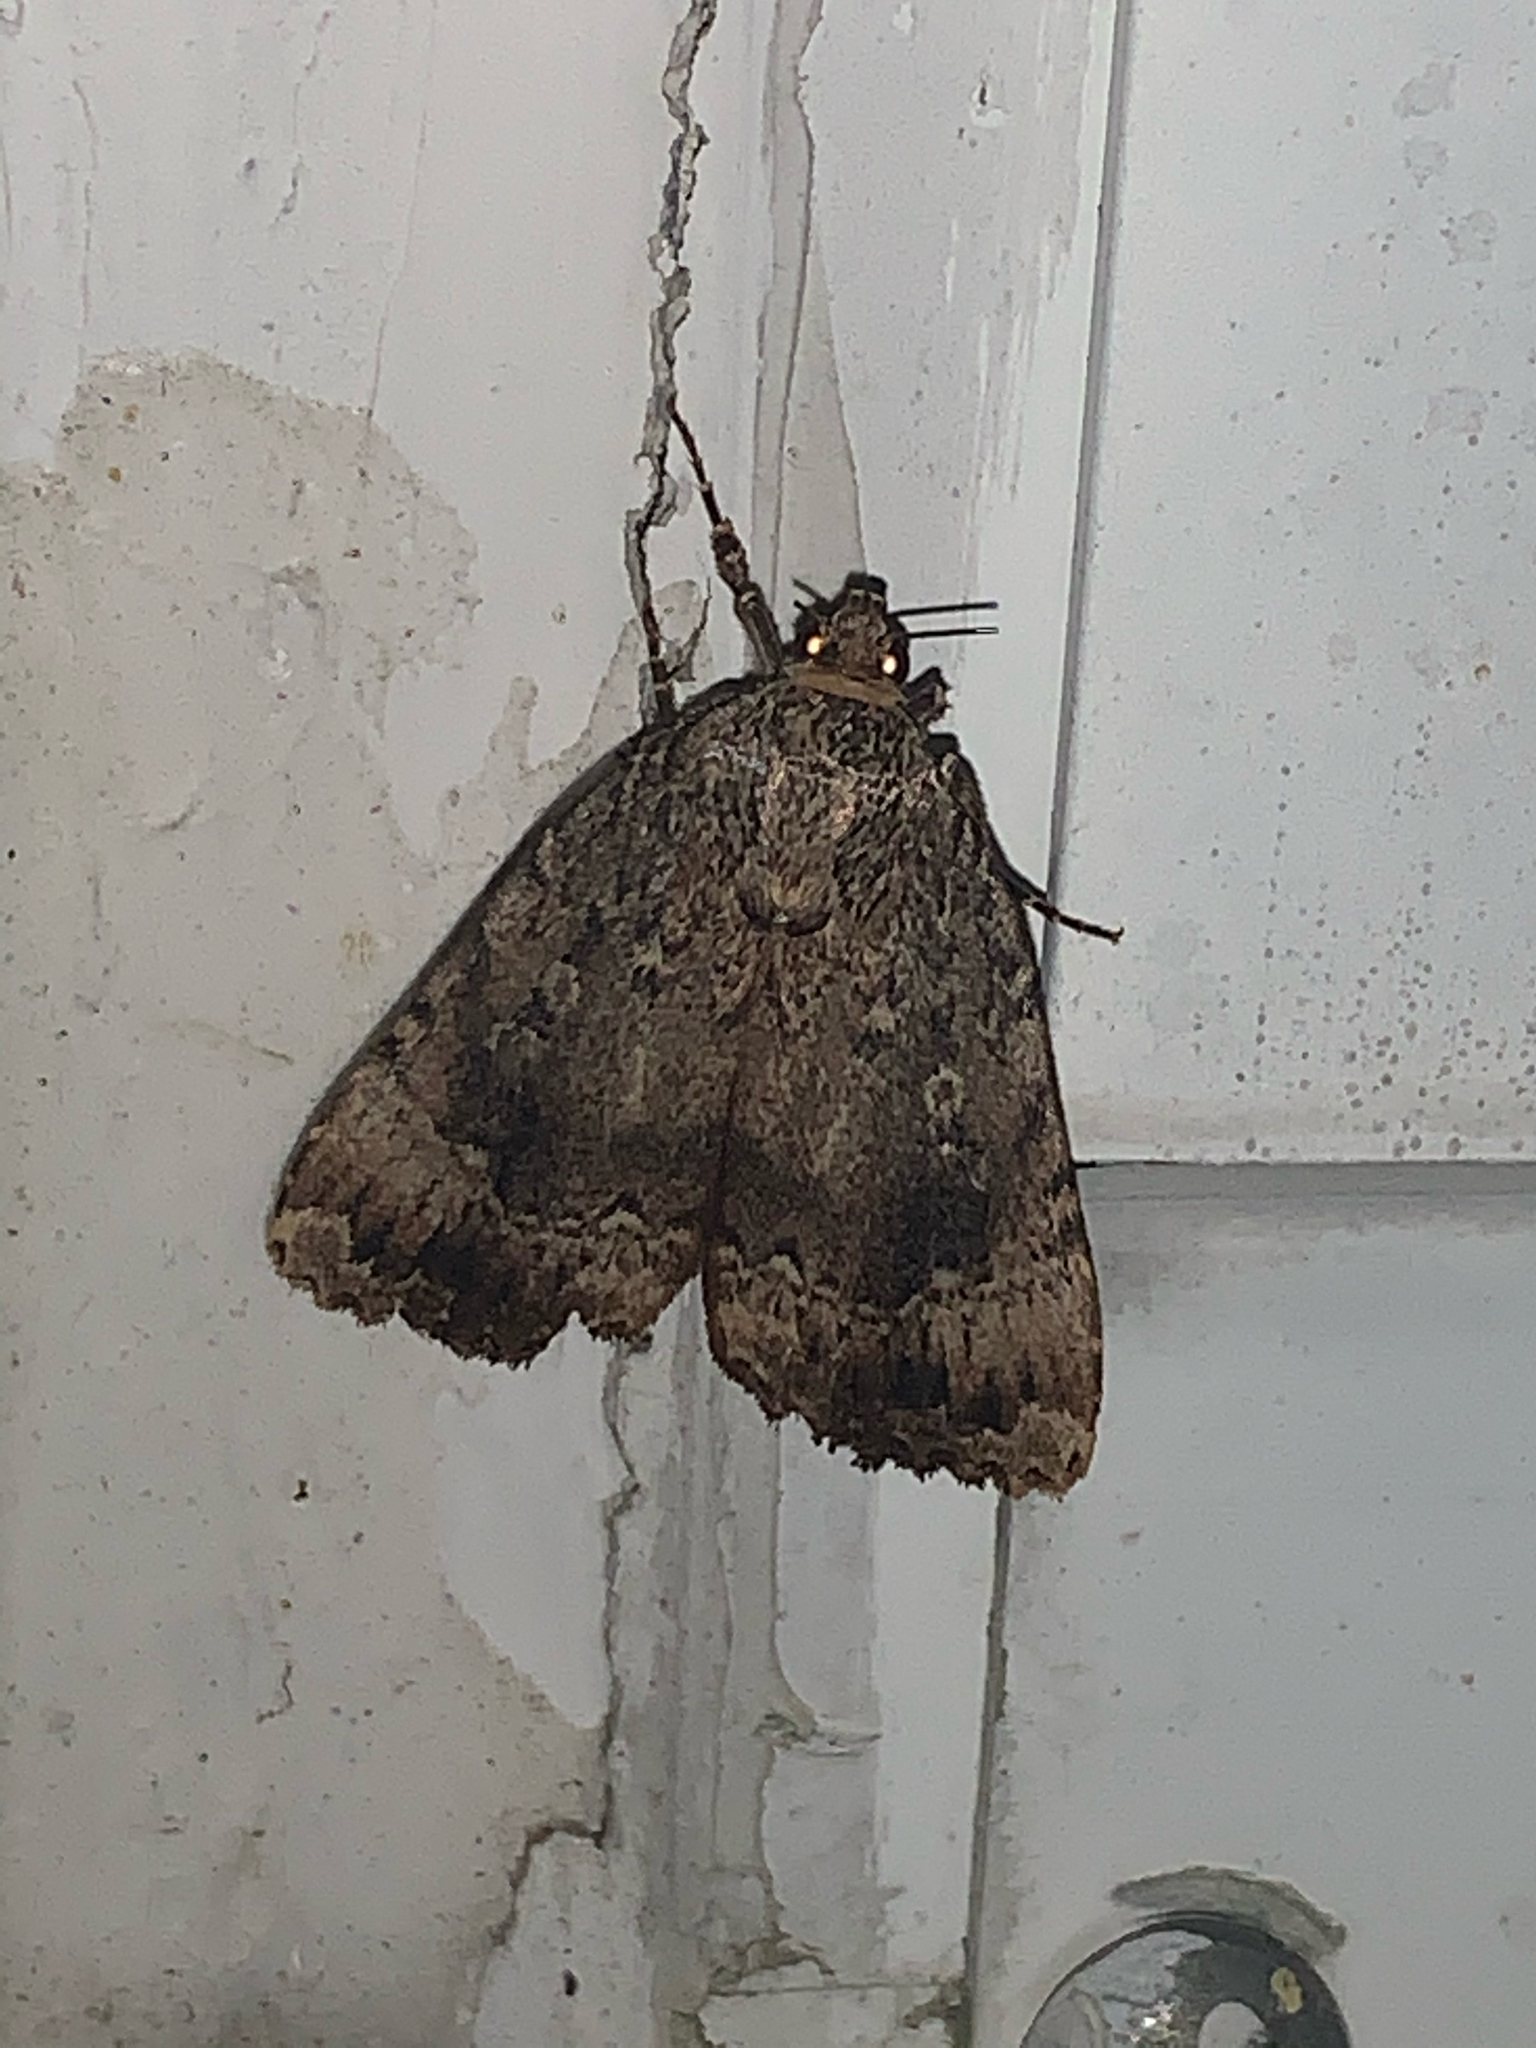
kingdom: Animalia
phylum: Arthropoda
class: Insecta
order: Lepidoptera
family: Noctuidae
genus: Amphipyra
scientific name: Amphipyra pyramidoides
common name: American copper underwing
